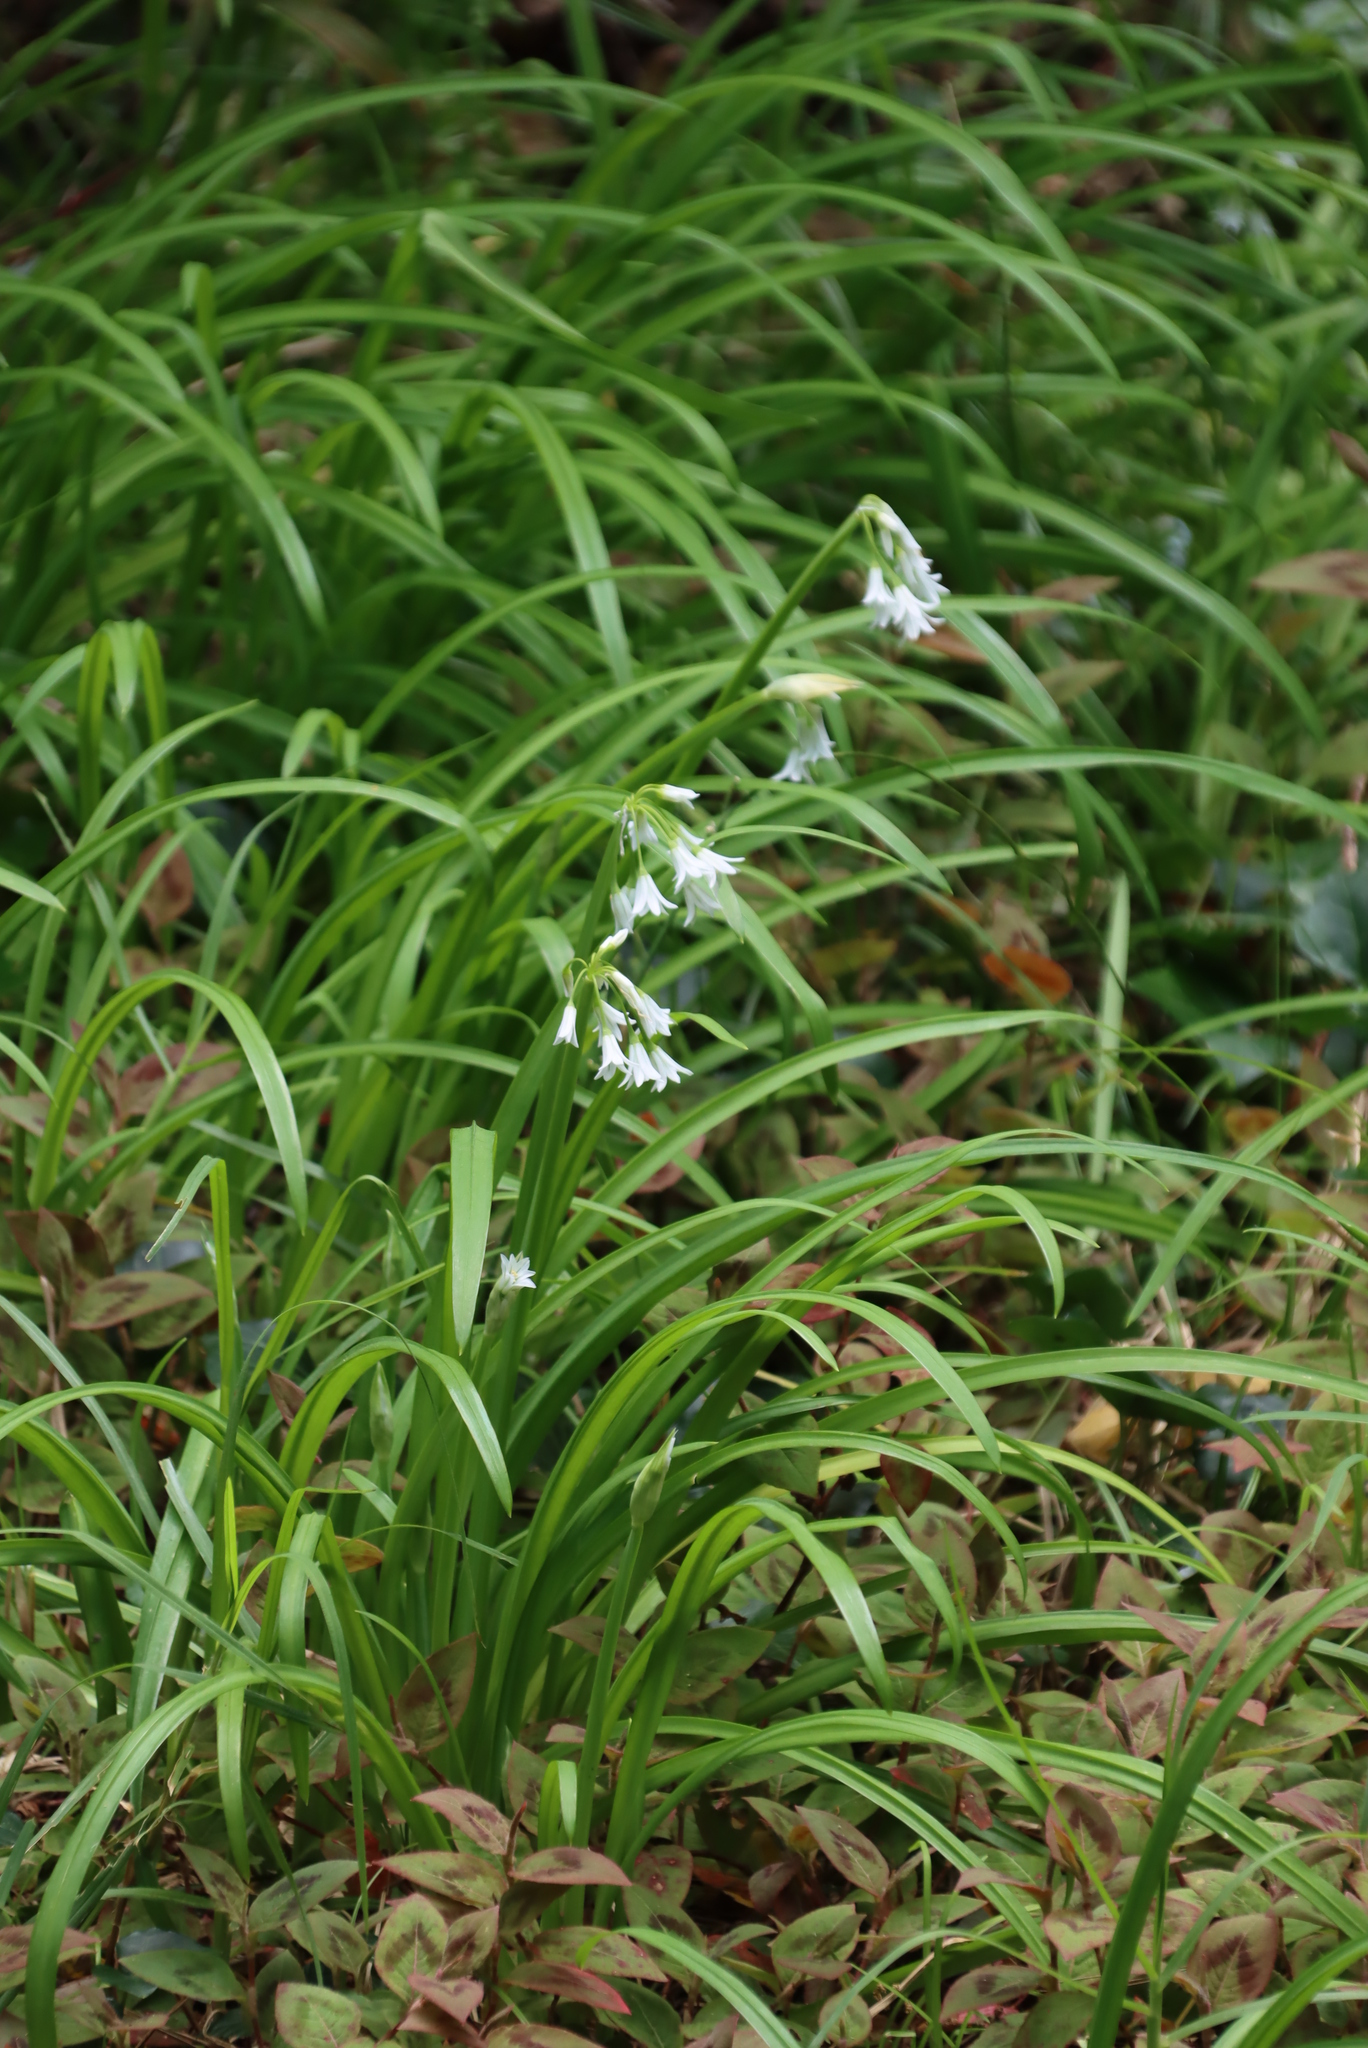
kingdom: Plantae
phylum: Tracheophyta
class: Liliopsida
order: Asparagales
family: Amaryllidaceae
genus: Allium
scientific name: Allium triquetrum
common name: Three-cornered garlic
